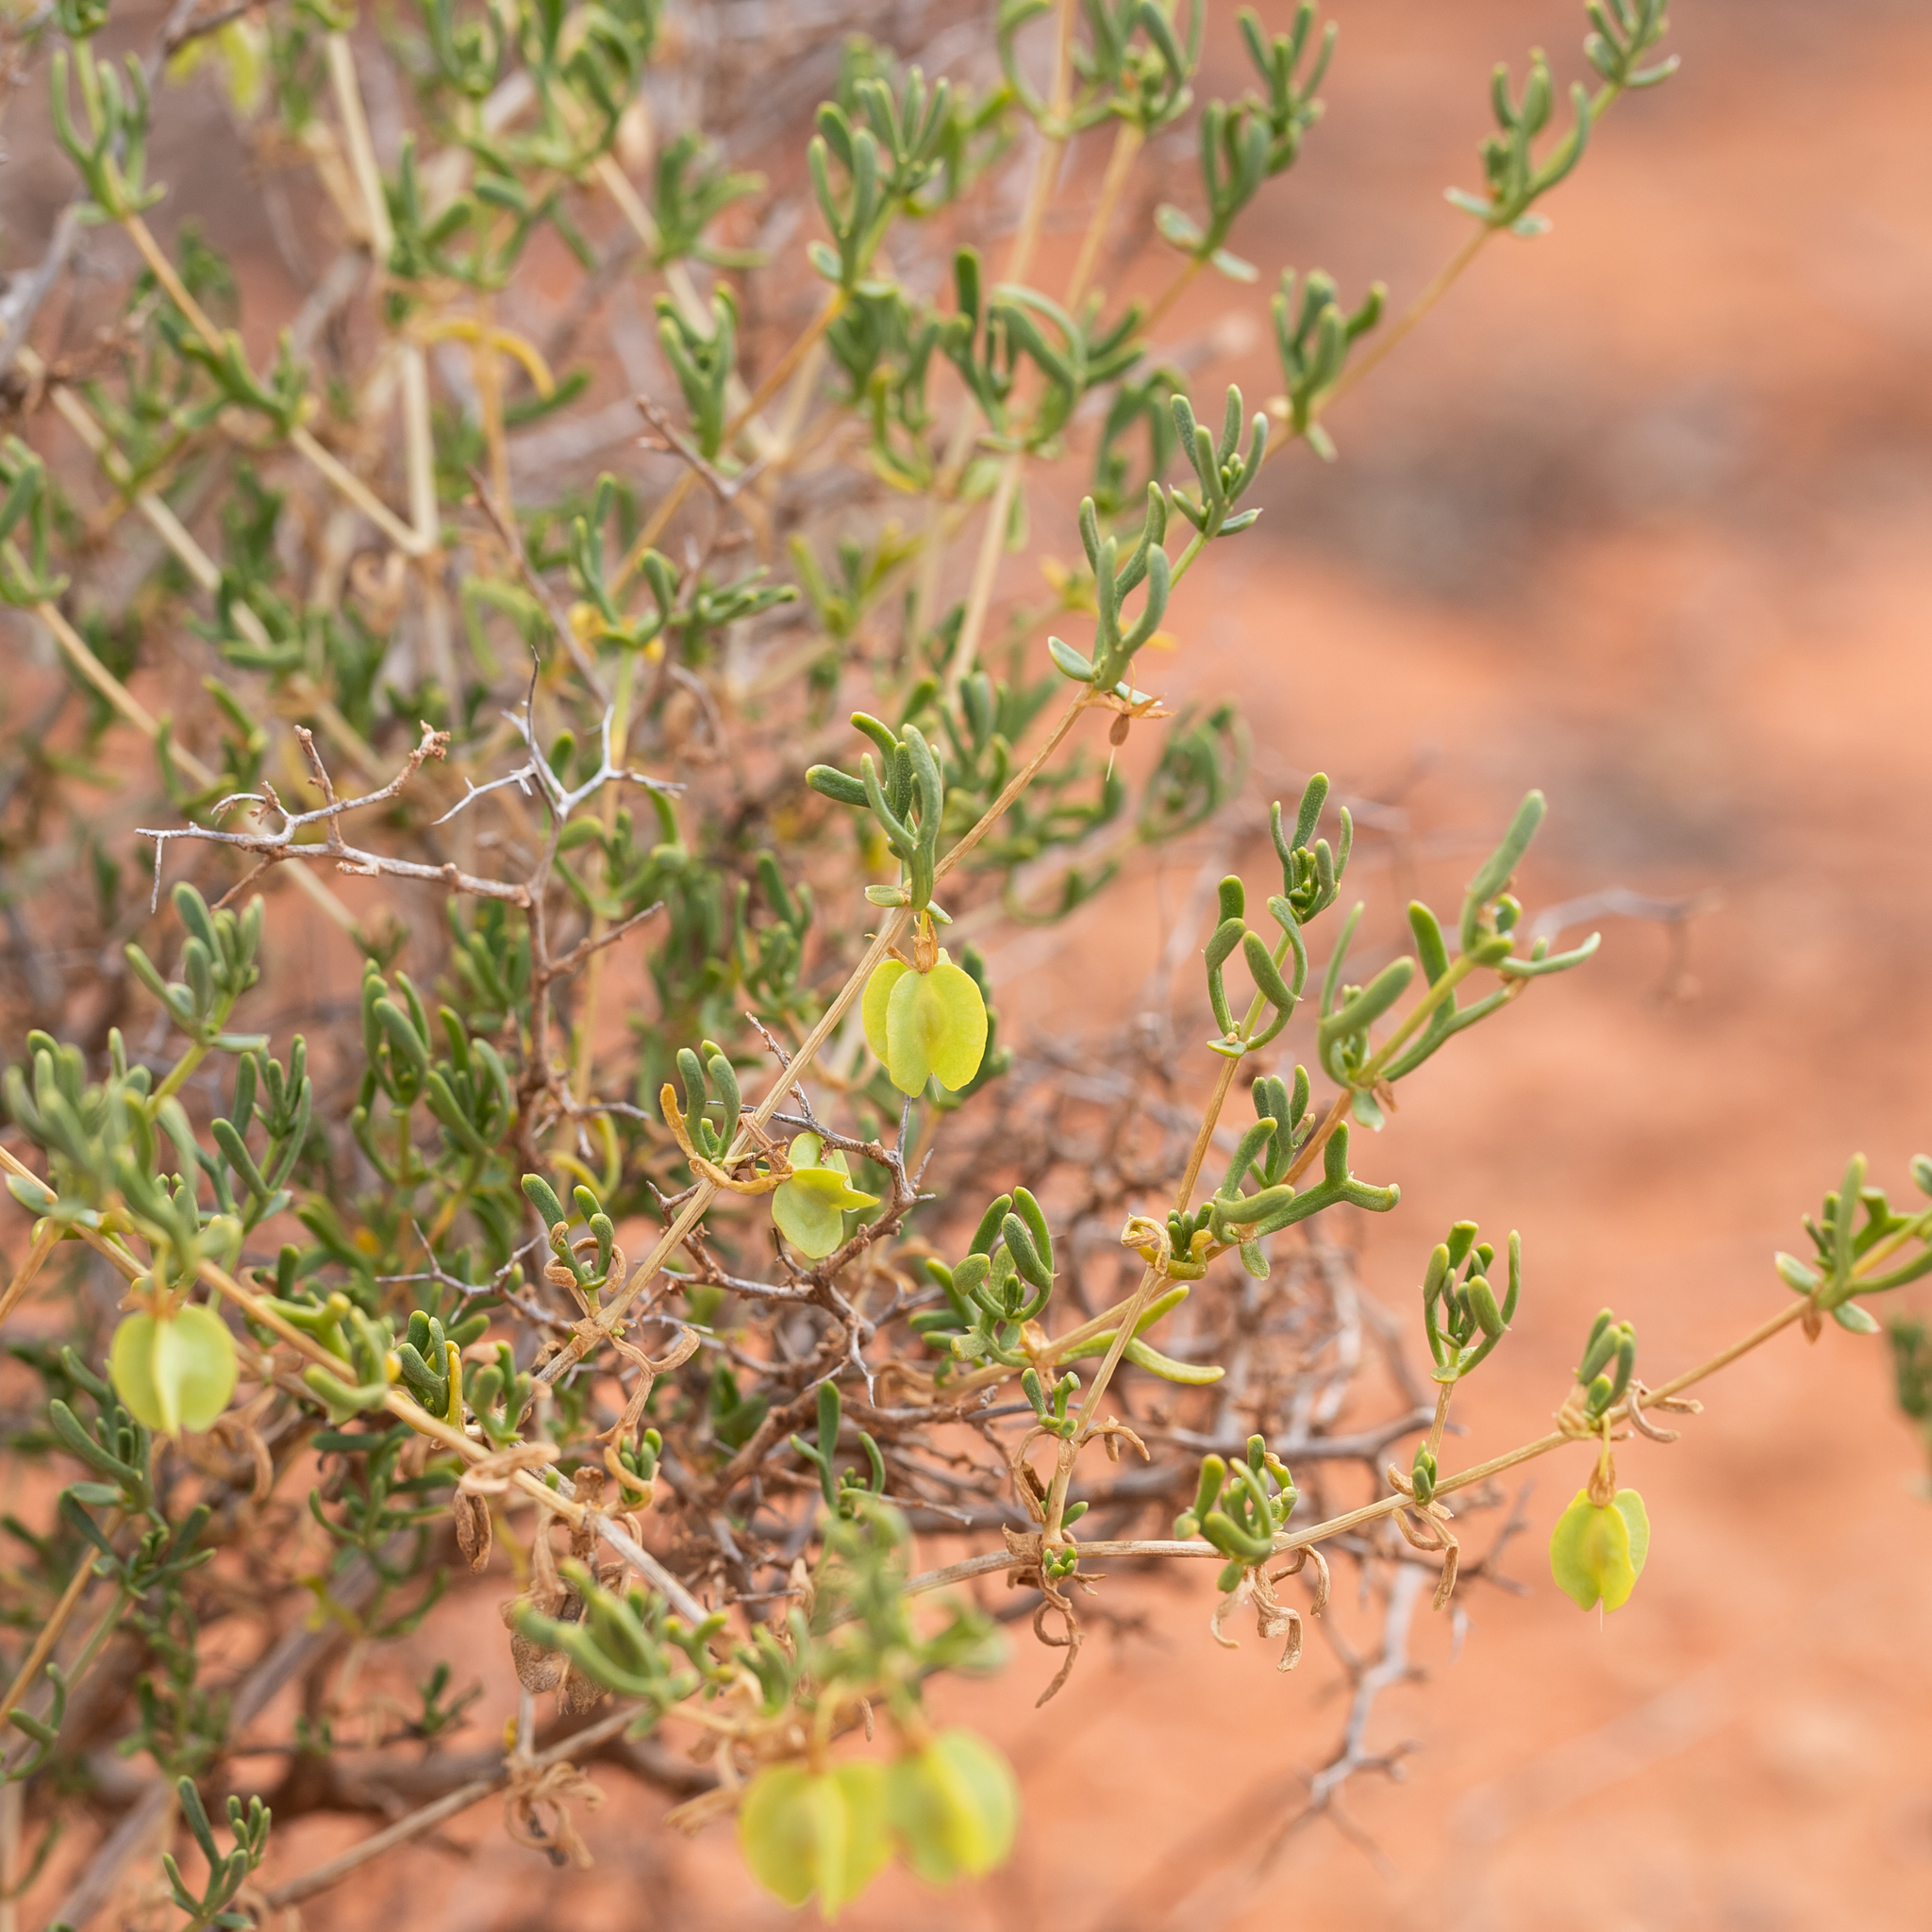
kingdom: Plantae
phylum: Tracheophyta
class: Magnoliopsida
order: Zygophyllales
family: Zygophyllaceae
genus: Roepera
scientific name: Roepera aurantiaca
